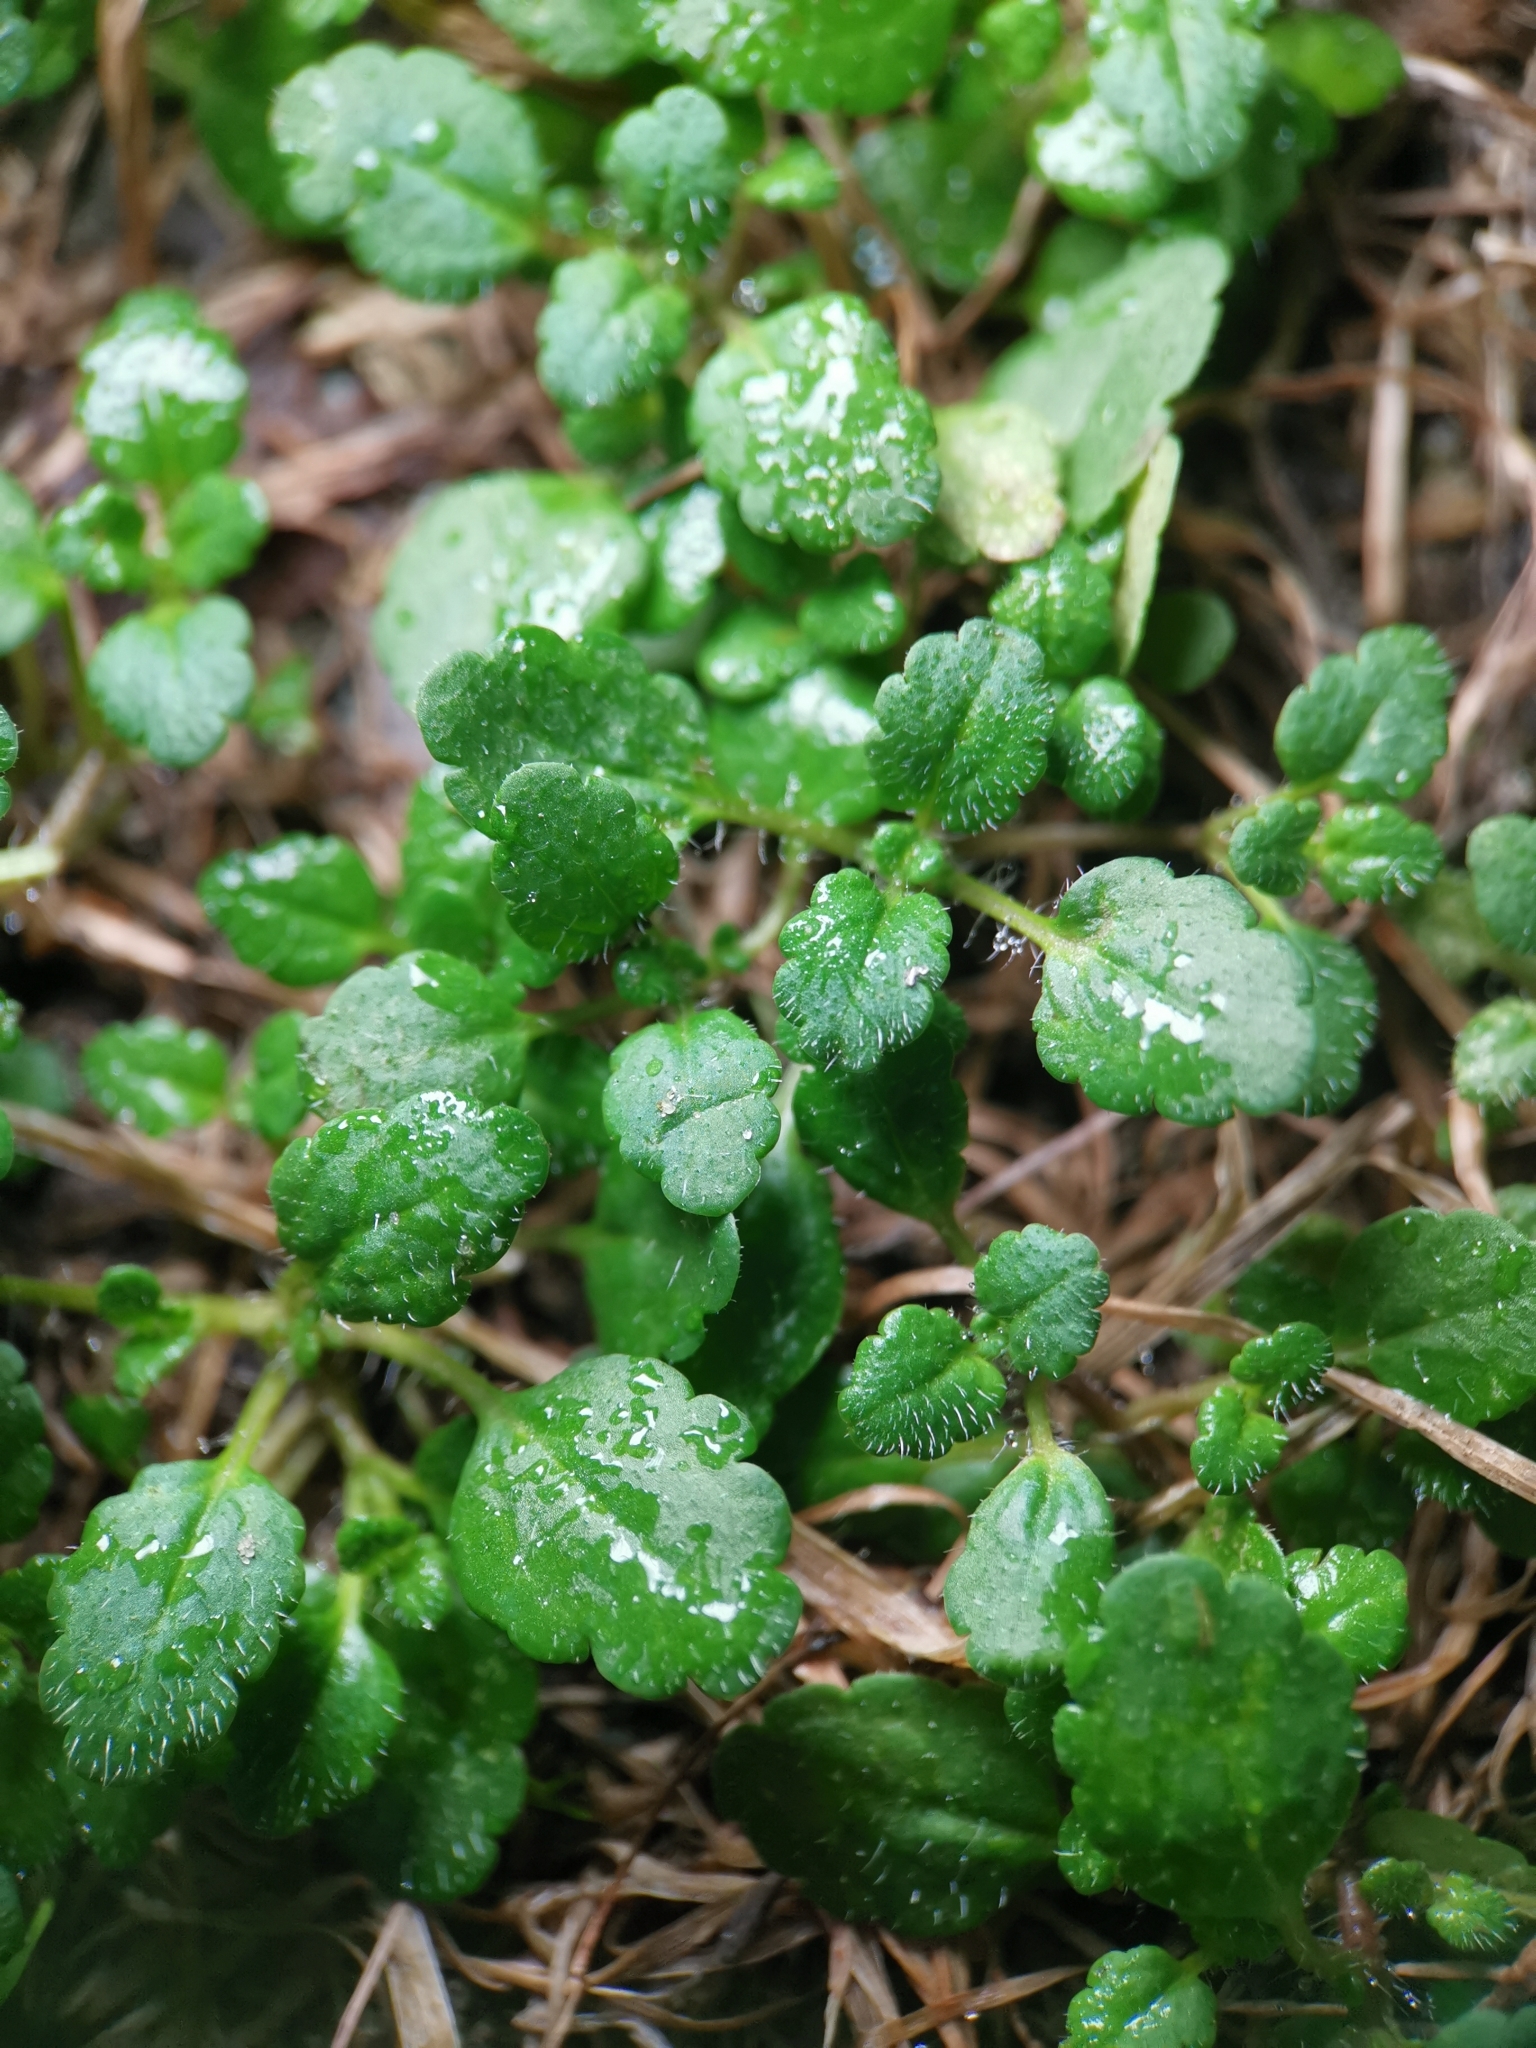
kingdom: Plantae
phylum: Tracheophyta
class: Magnoliopsida
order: Lamiales
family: Plantaginaceae
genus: Veronica
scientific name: Veronica arvensis
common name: Corn speedwell
